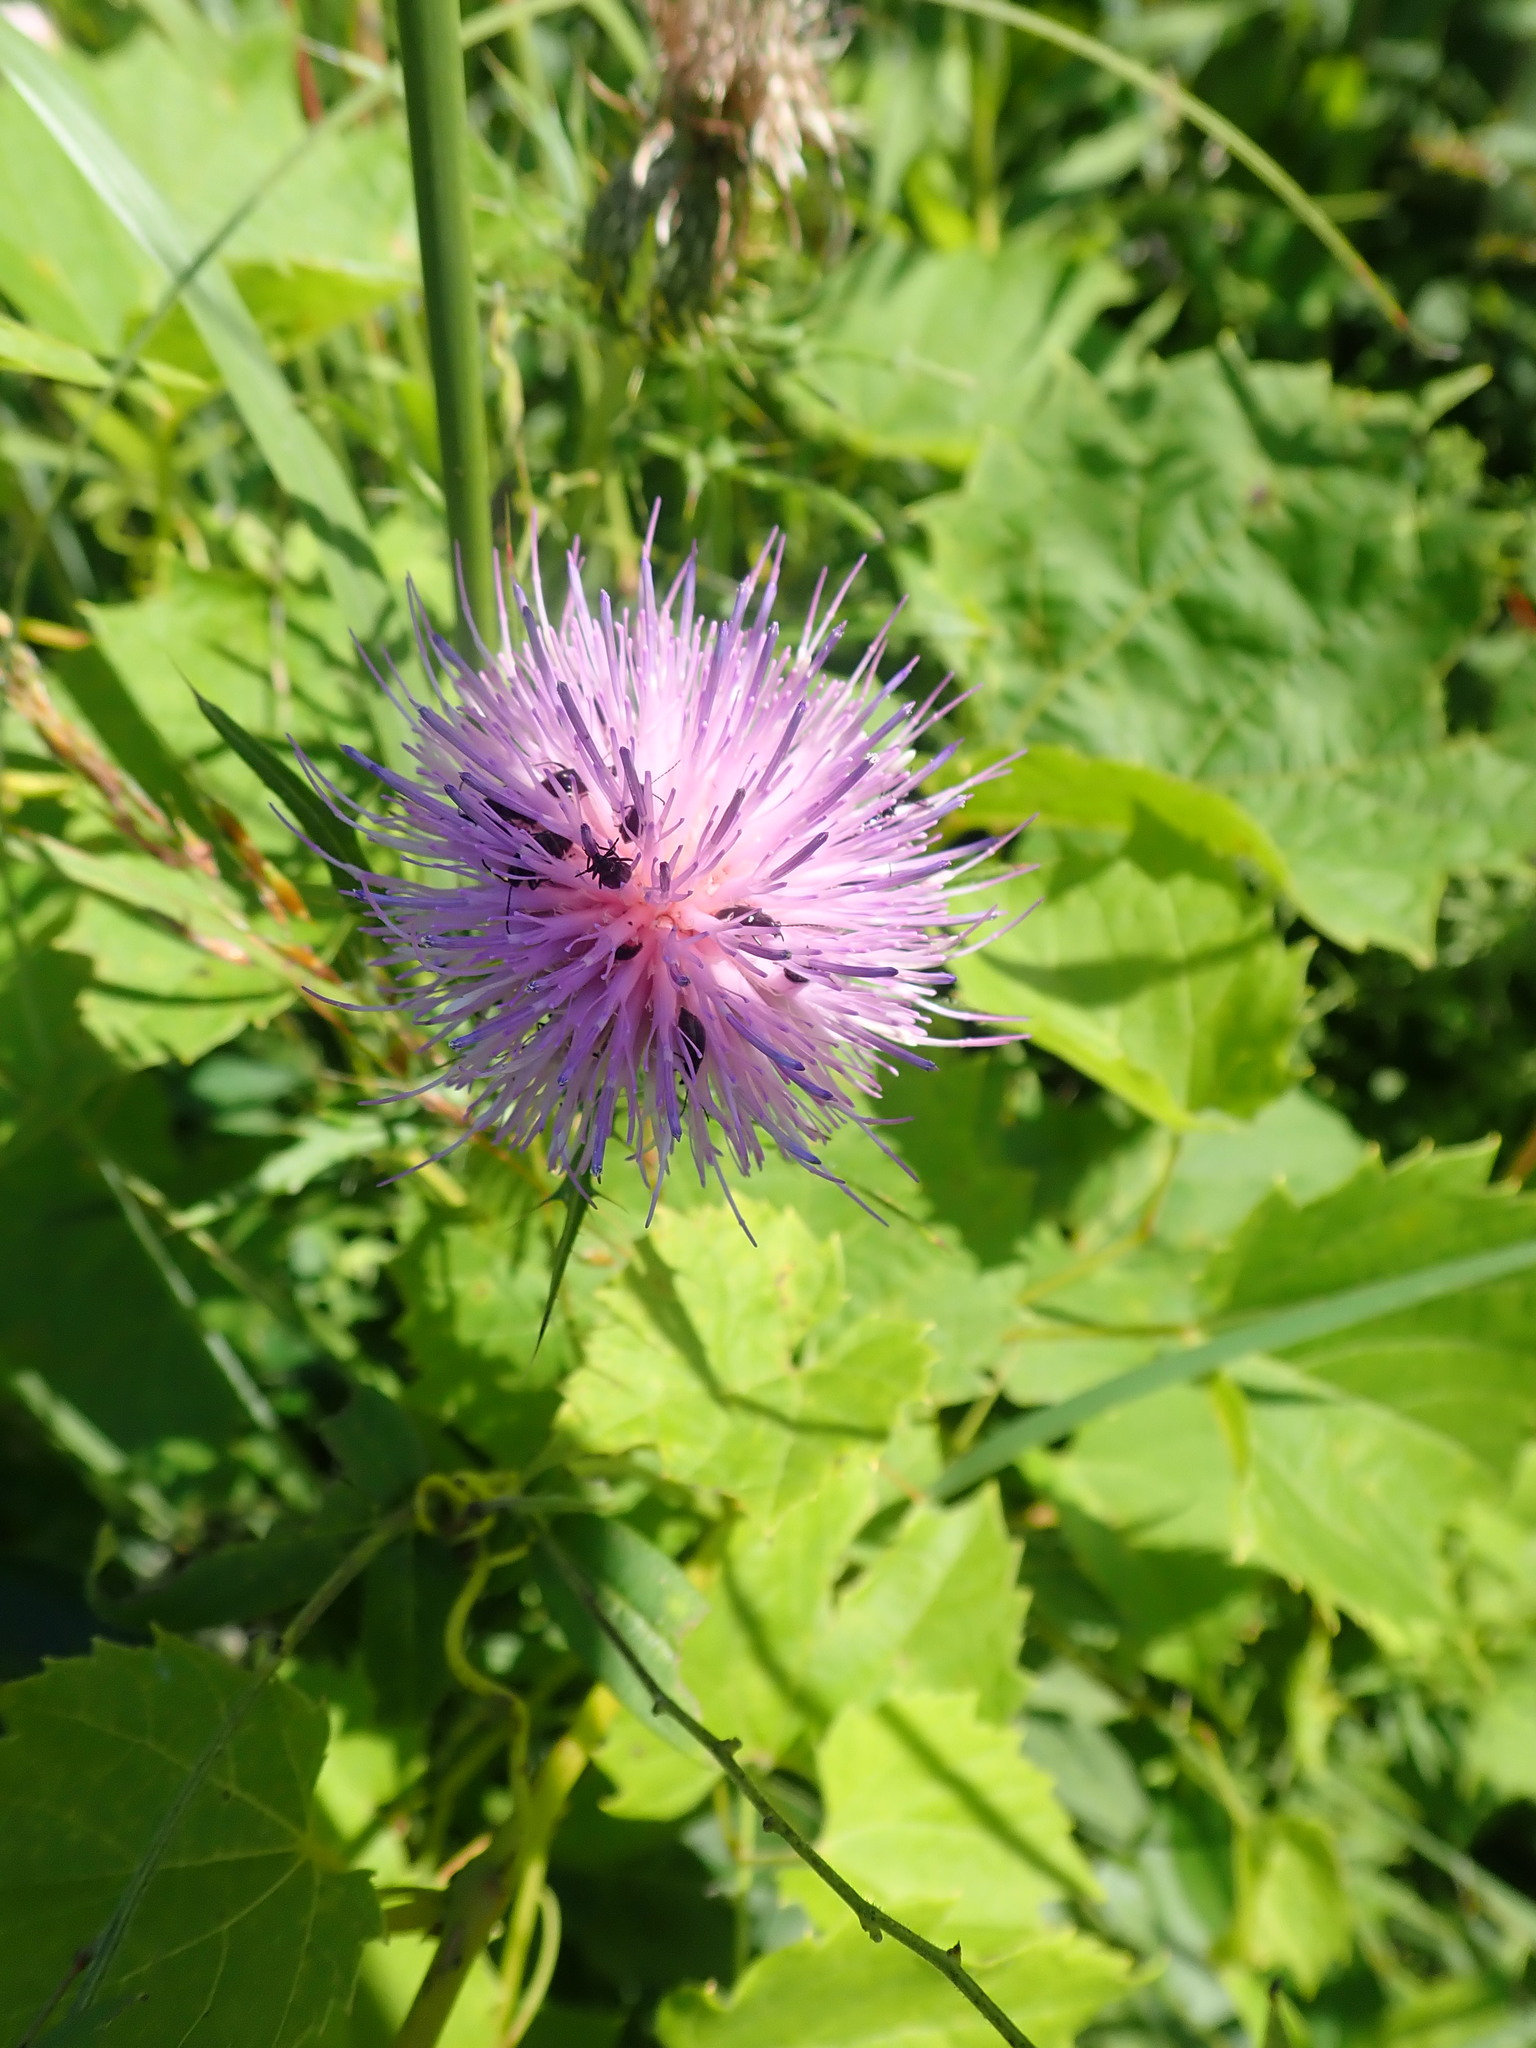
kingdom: Plantae
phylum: Tracheophyta
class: Magnoliopsida
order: Asterales
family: Asteraceae
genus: Cirsium
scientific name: Cirsium arvense
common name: Creeping thistle
